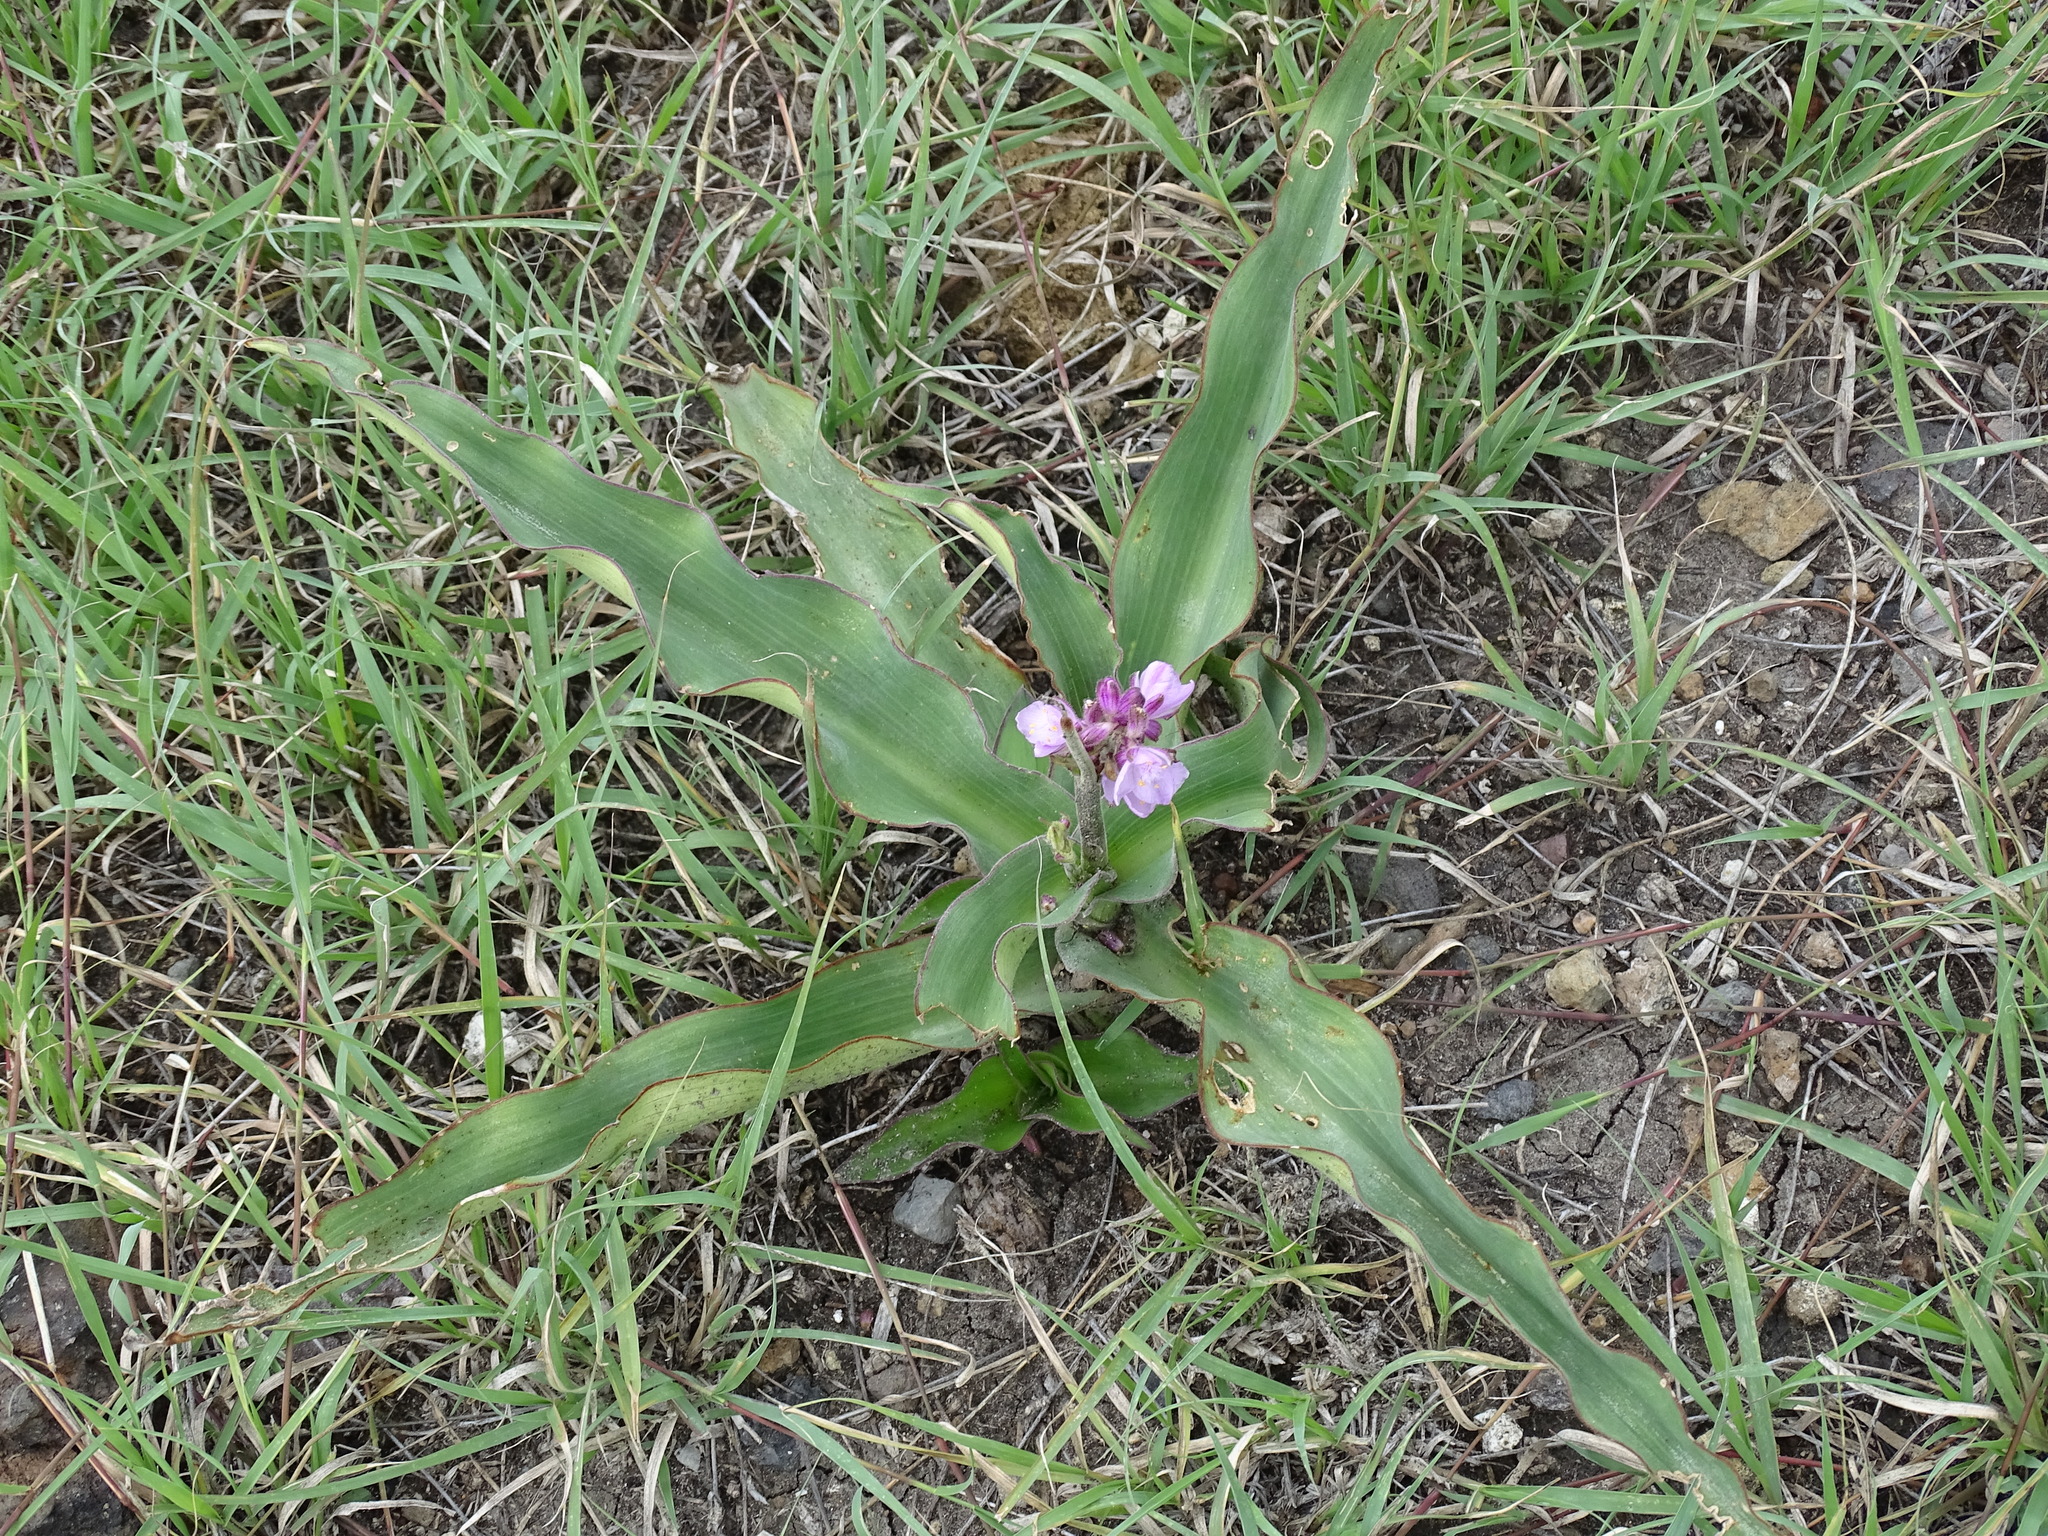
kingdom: Plantae
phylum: Tracheophyta
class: Liliopsida
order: Commelinales
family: Commelinaceae
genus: Thyrsanthemum
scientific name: Thyrsanthemum floribundum
